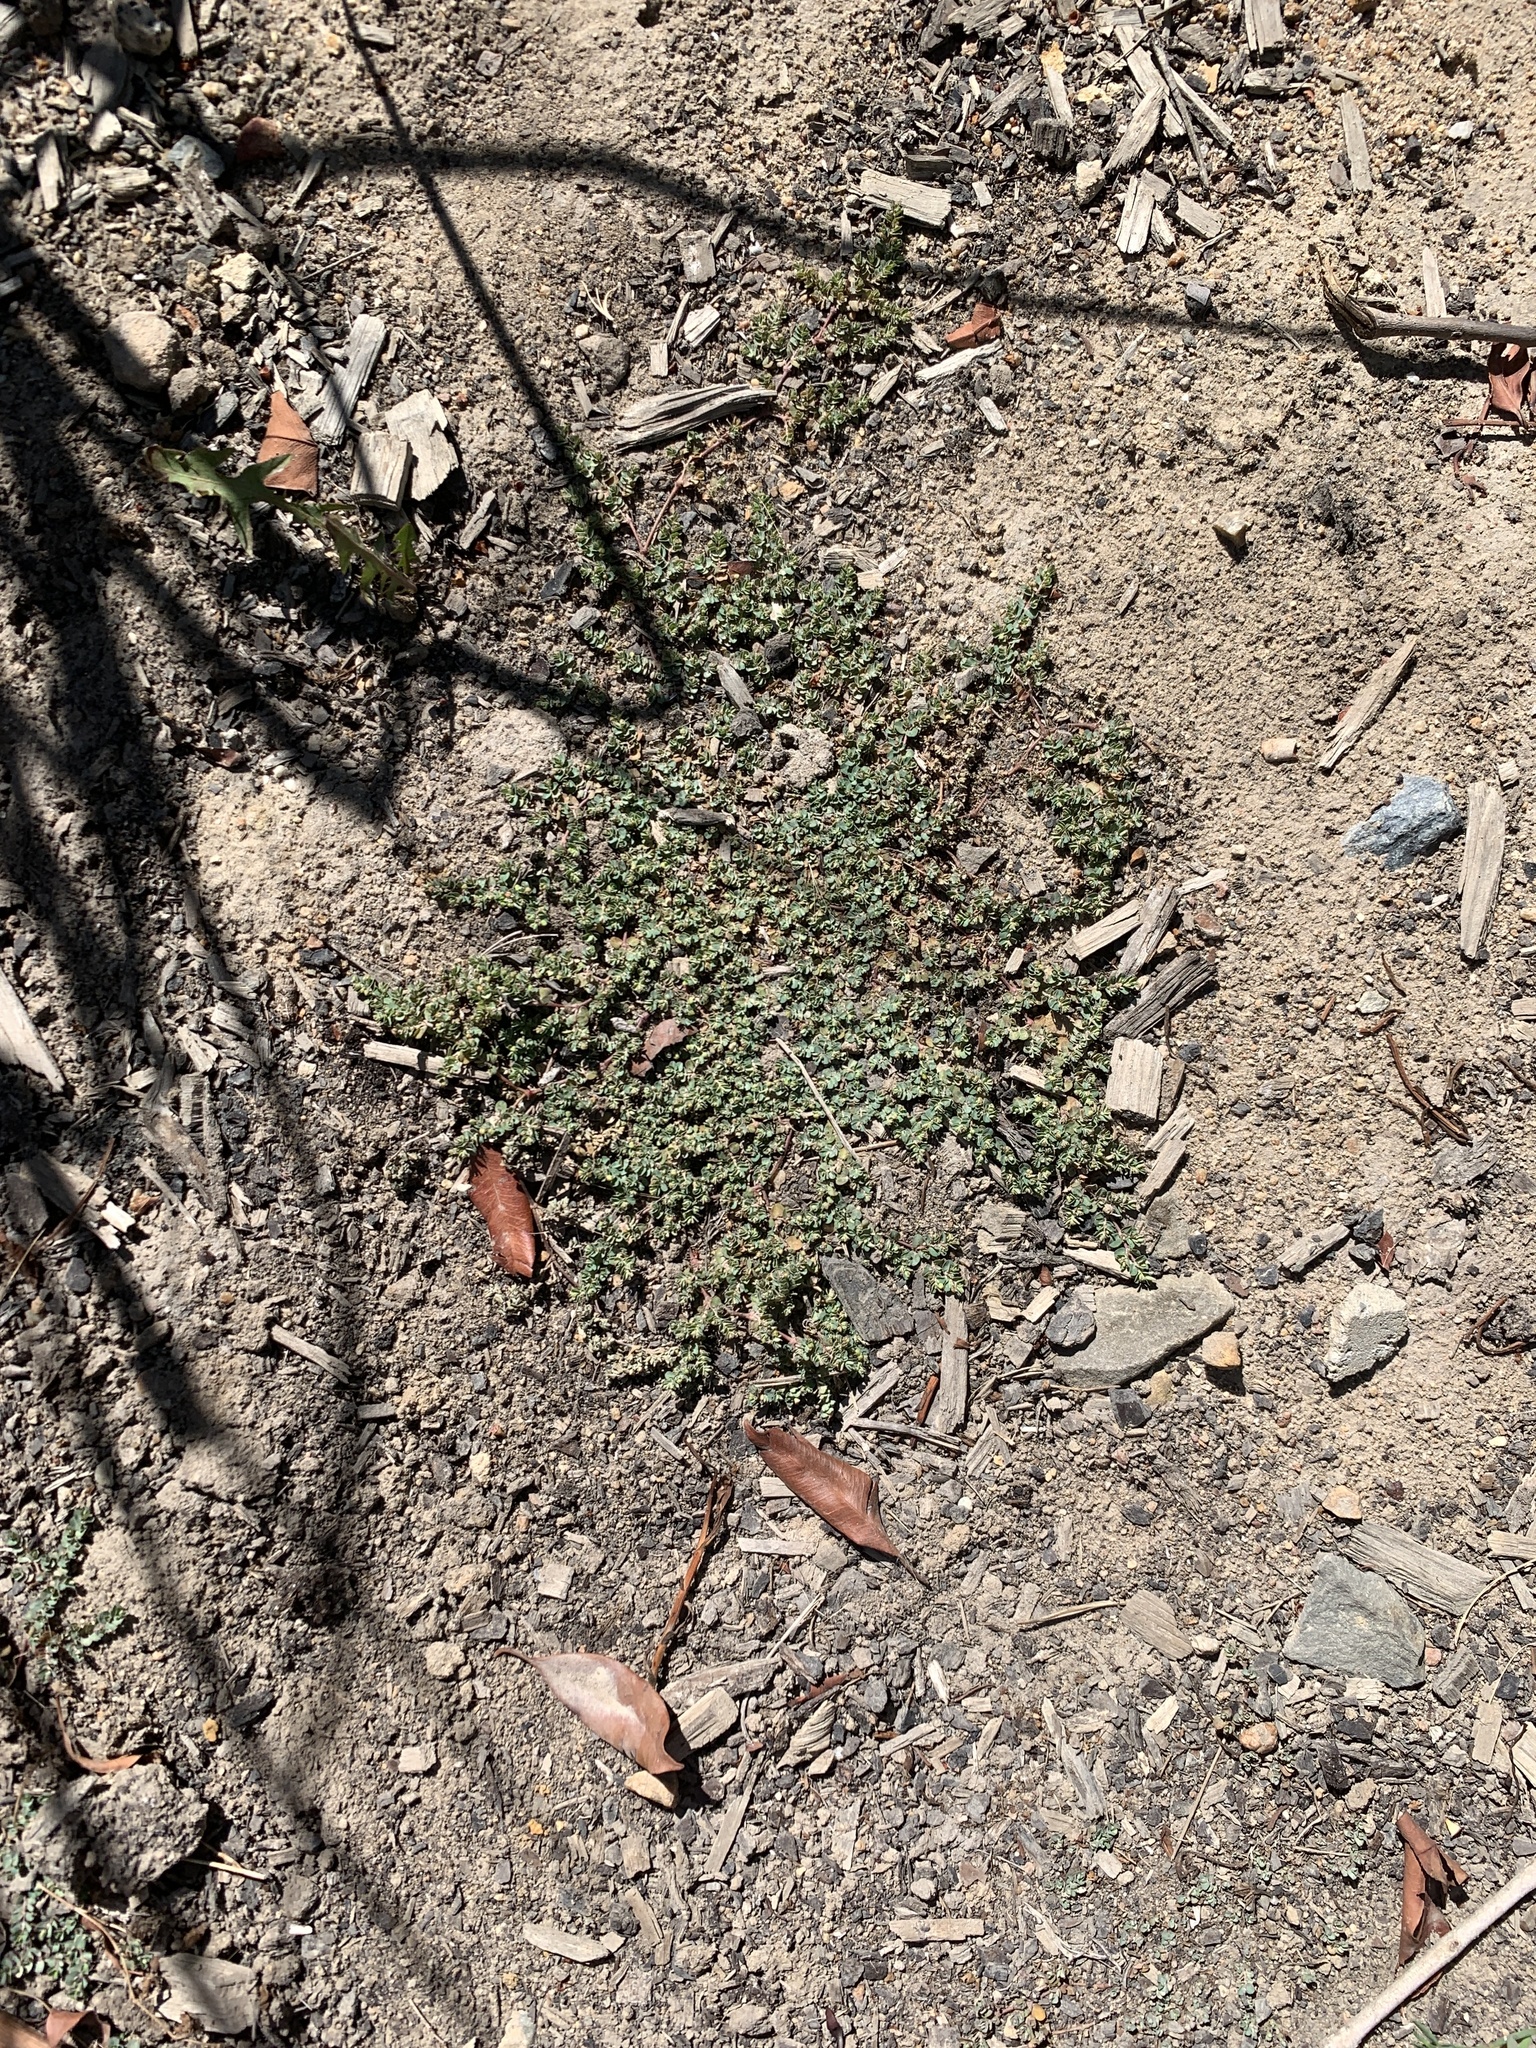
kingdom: Plantae
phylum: Tracheophyta
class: Magnoliopsida
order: Malpighiales
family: Euphorbiaceae
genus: Euphorbia
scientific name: Euphorbia serpens
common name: Matted sandmat
